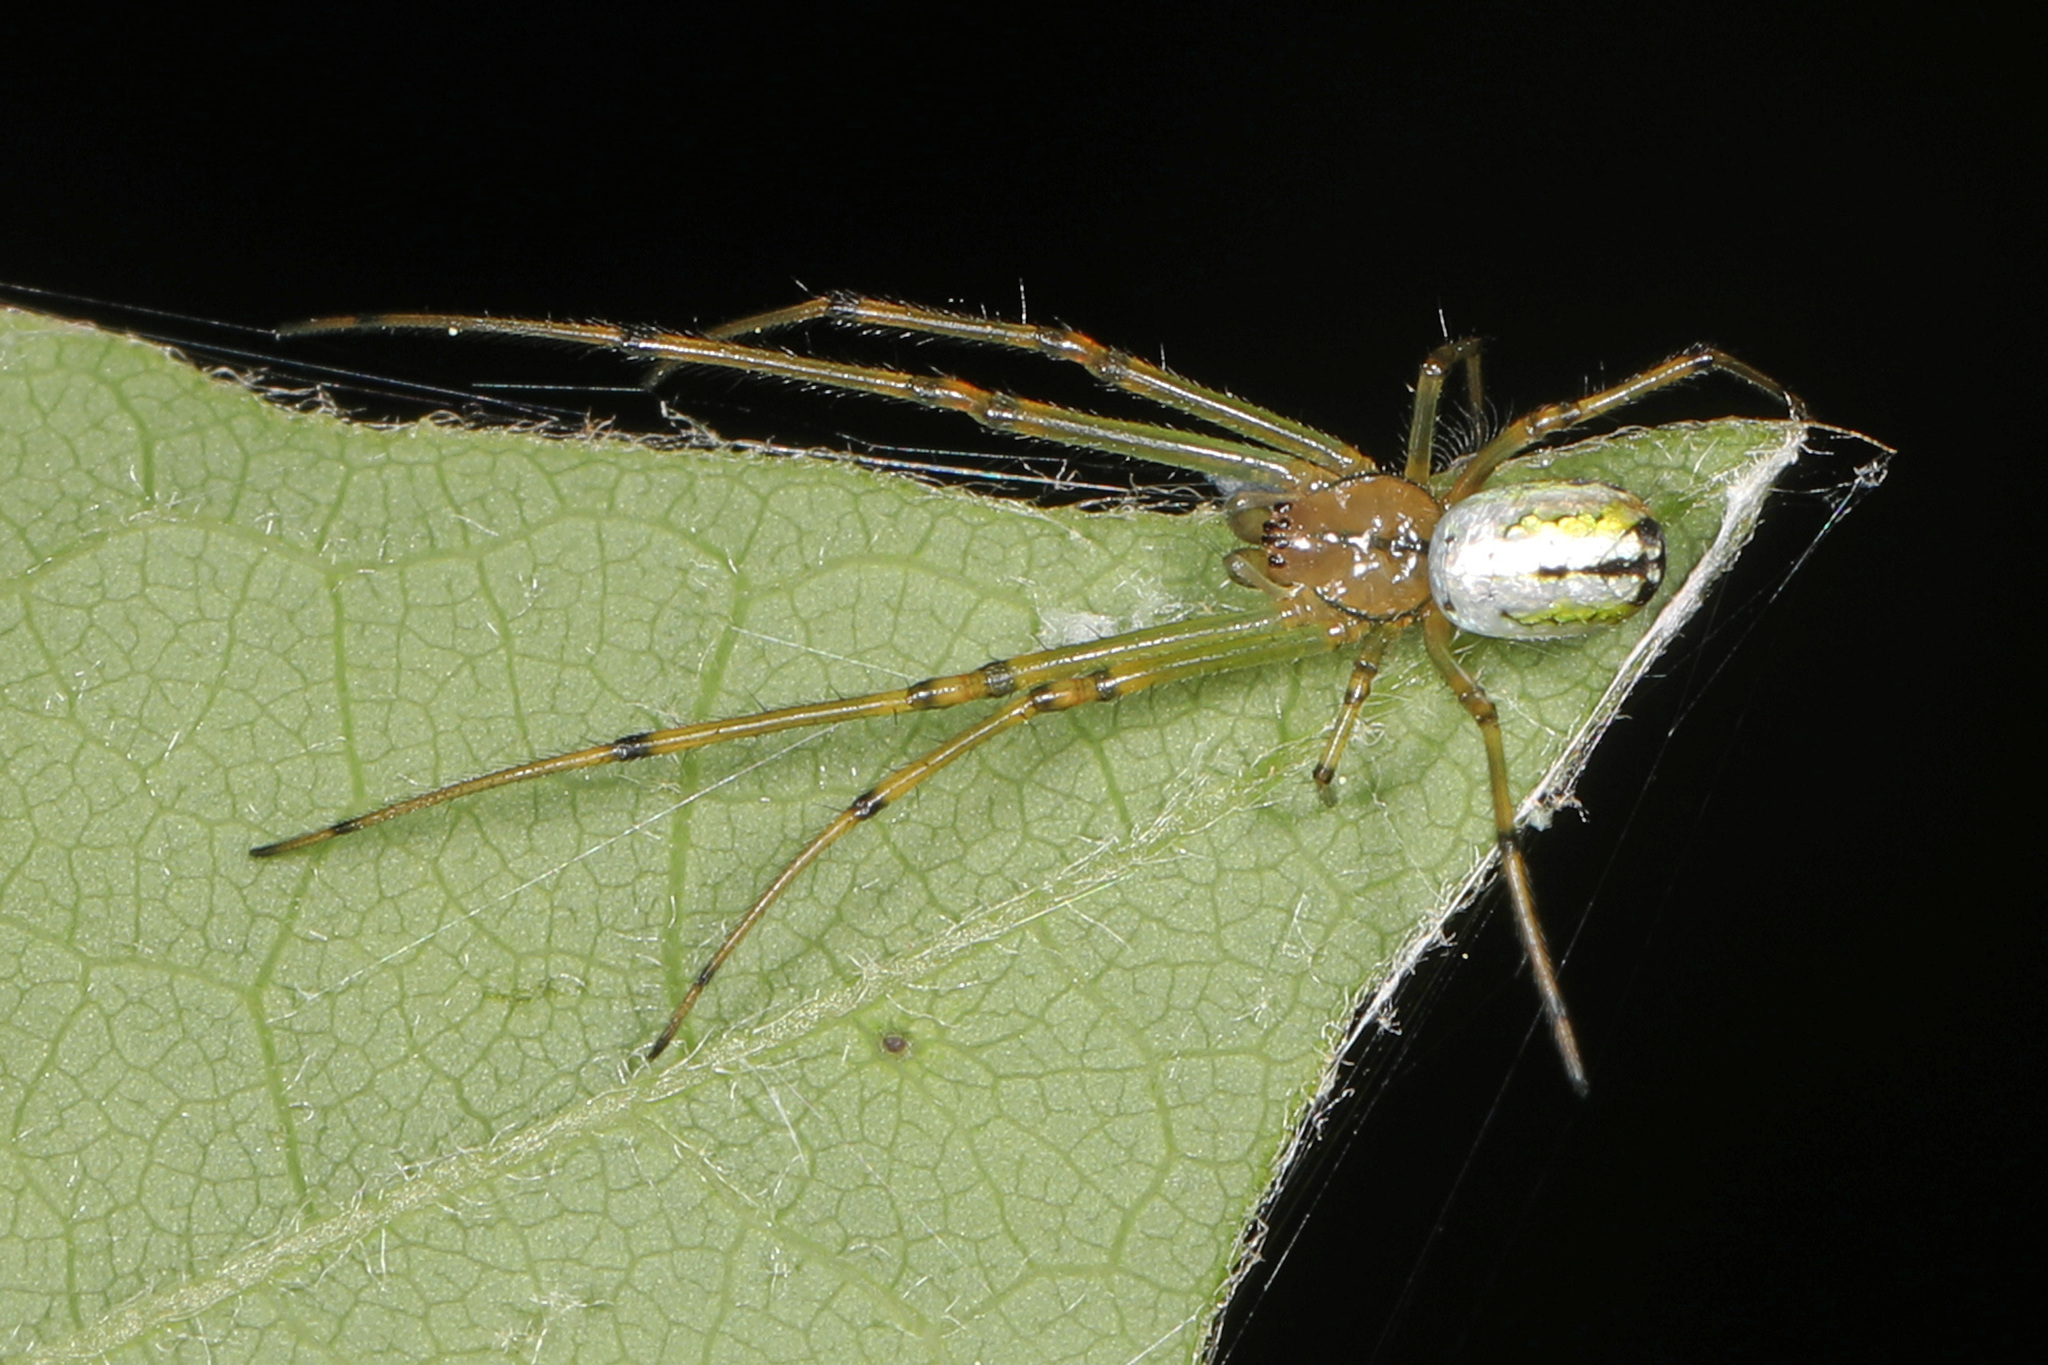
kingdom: Animalia
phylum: Arthropoda
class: Arachnida
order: Araneae
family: Tetragnathidae
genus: Leucauge
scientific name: Leucauge venusta
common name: Longjawed orb weavers
